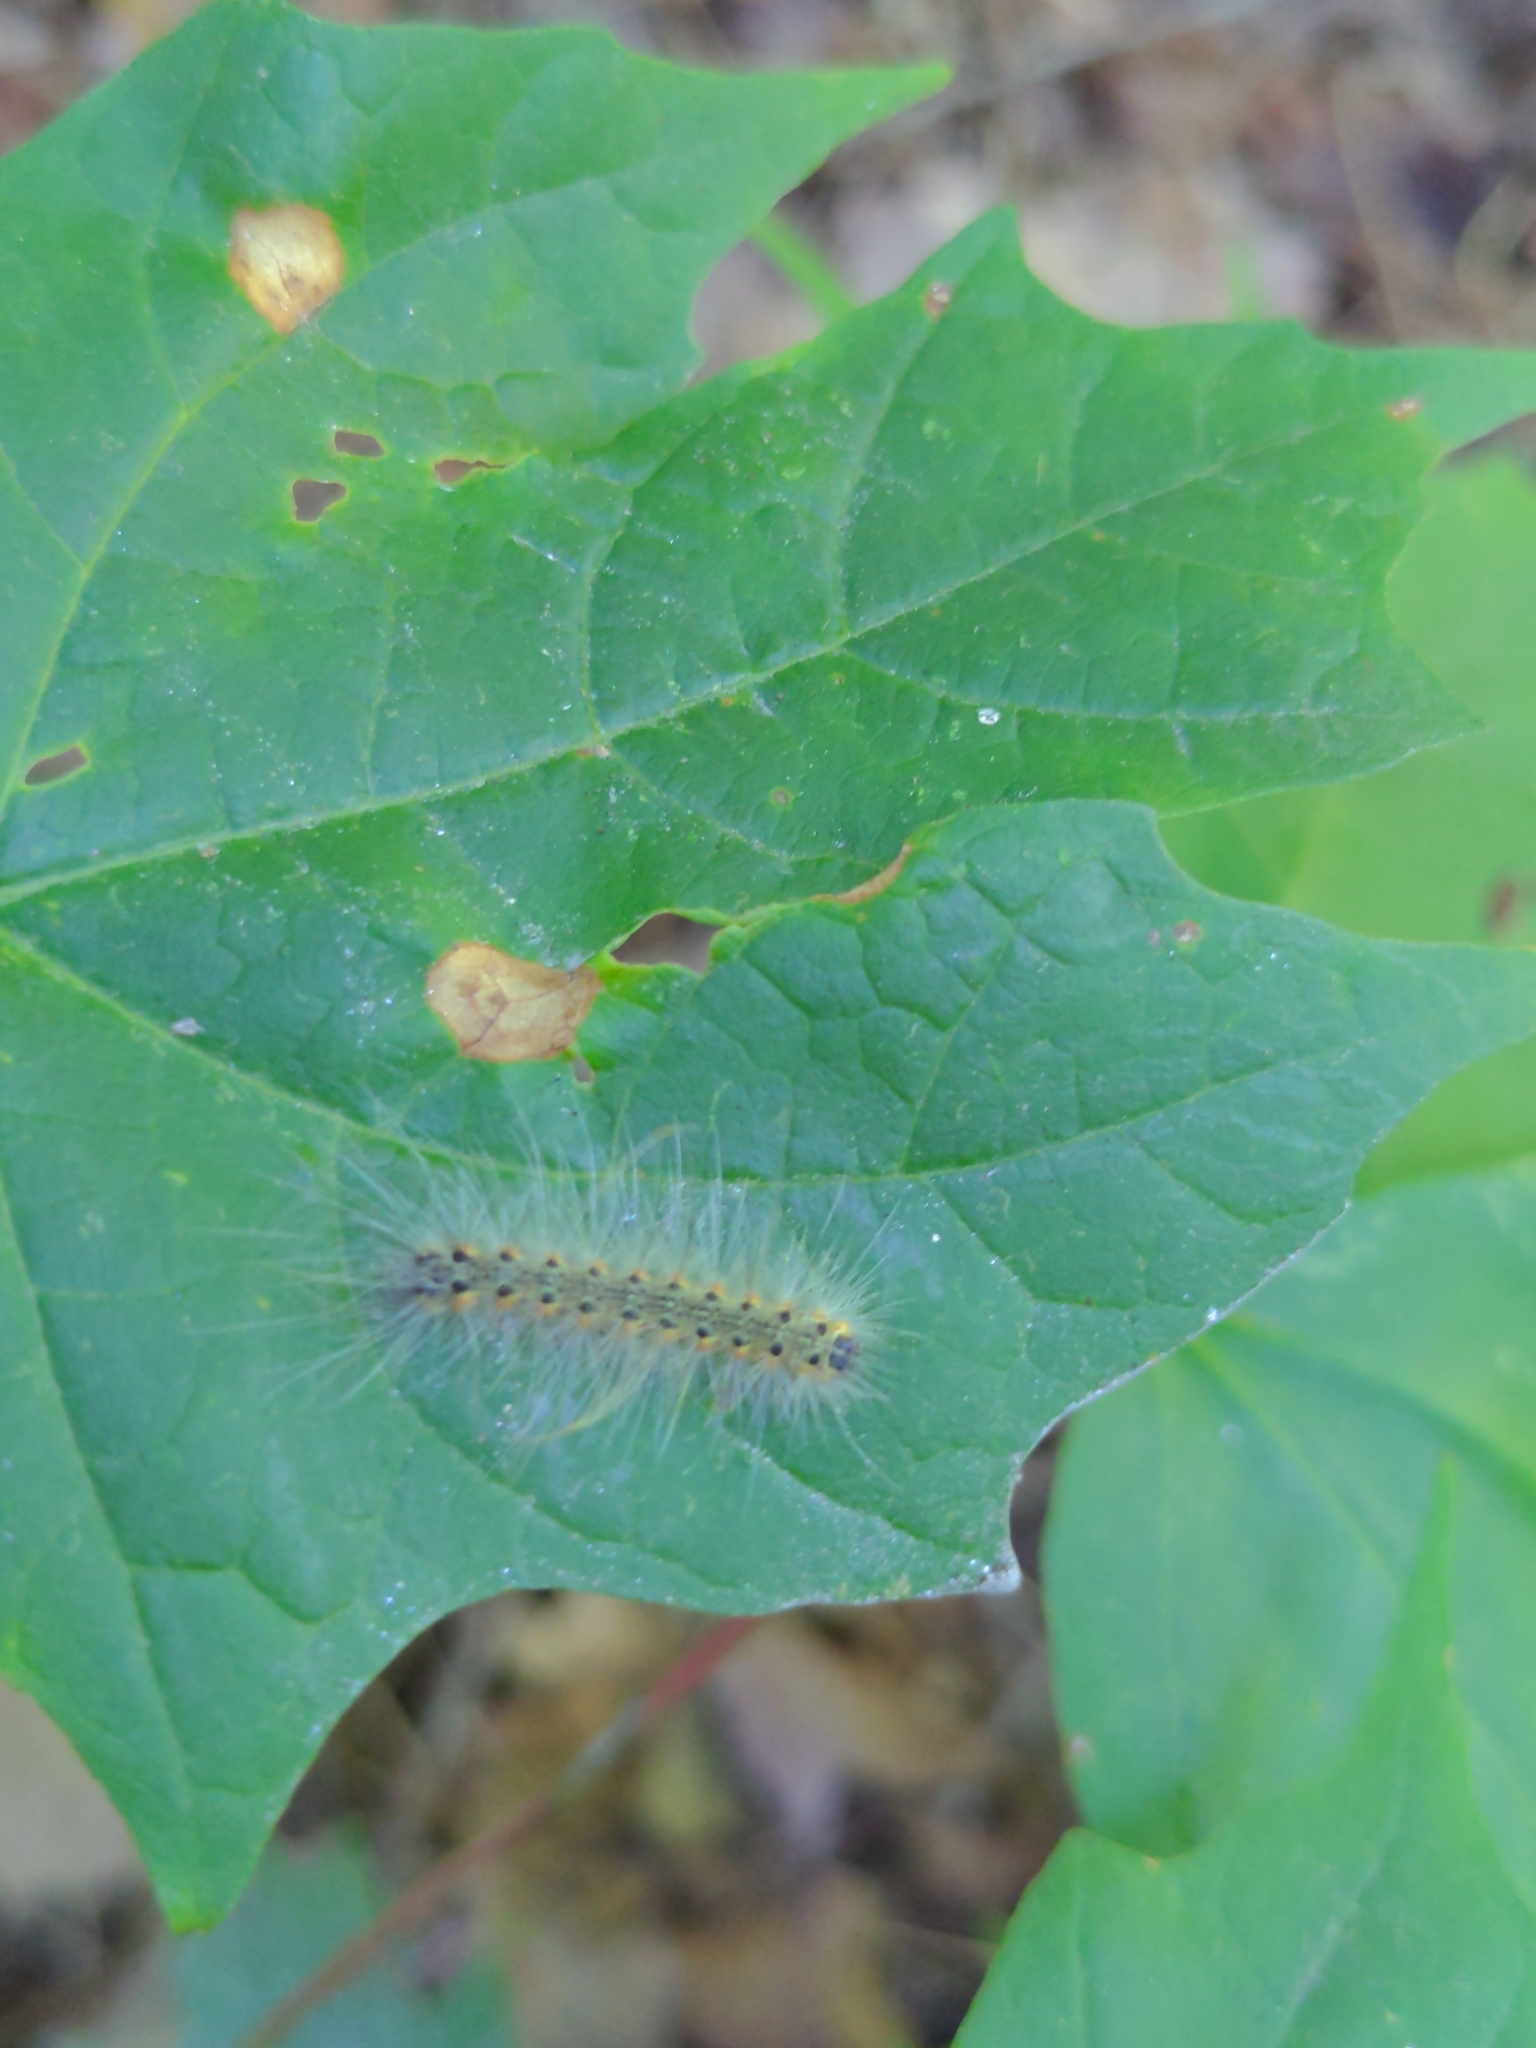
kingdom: Animalia
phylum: Arthropoda
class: Insecta
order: Lepidoptera
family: Erebidae
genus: Hyphantria
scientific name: Hyphantria cunea
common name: American white moth
